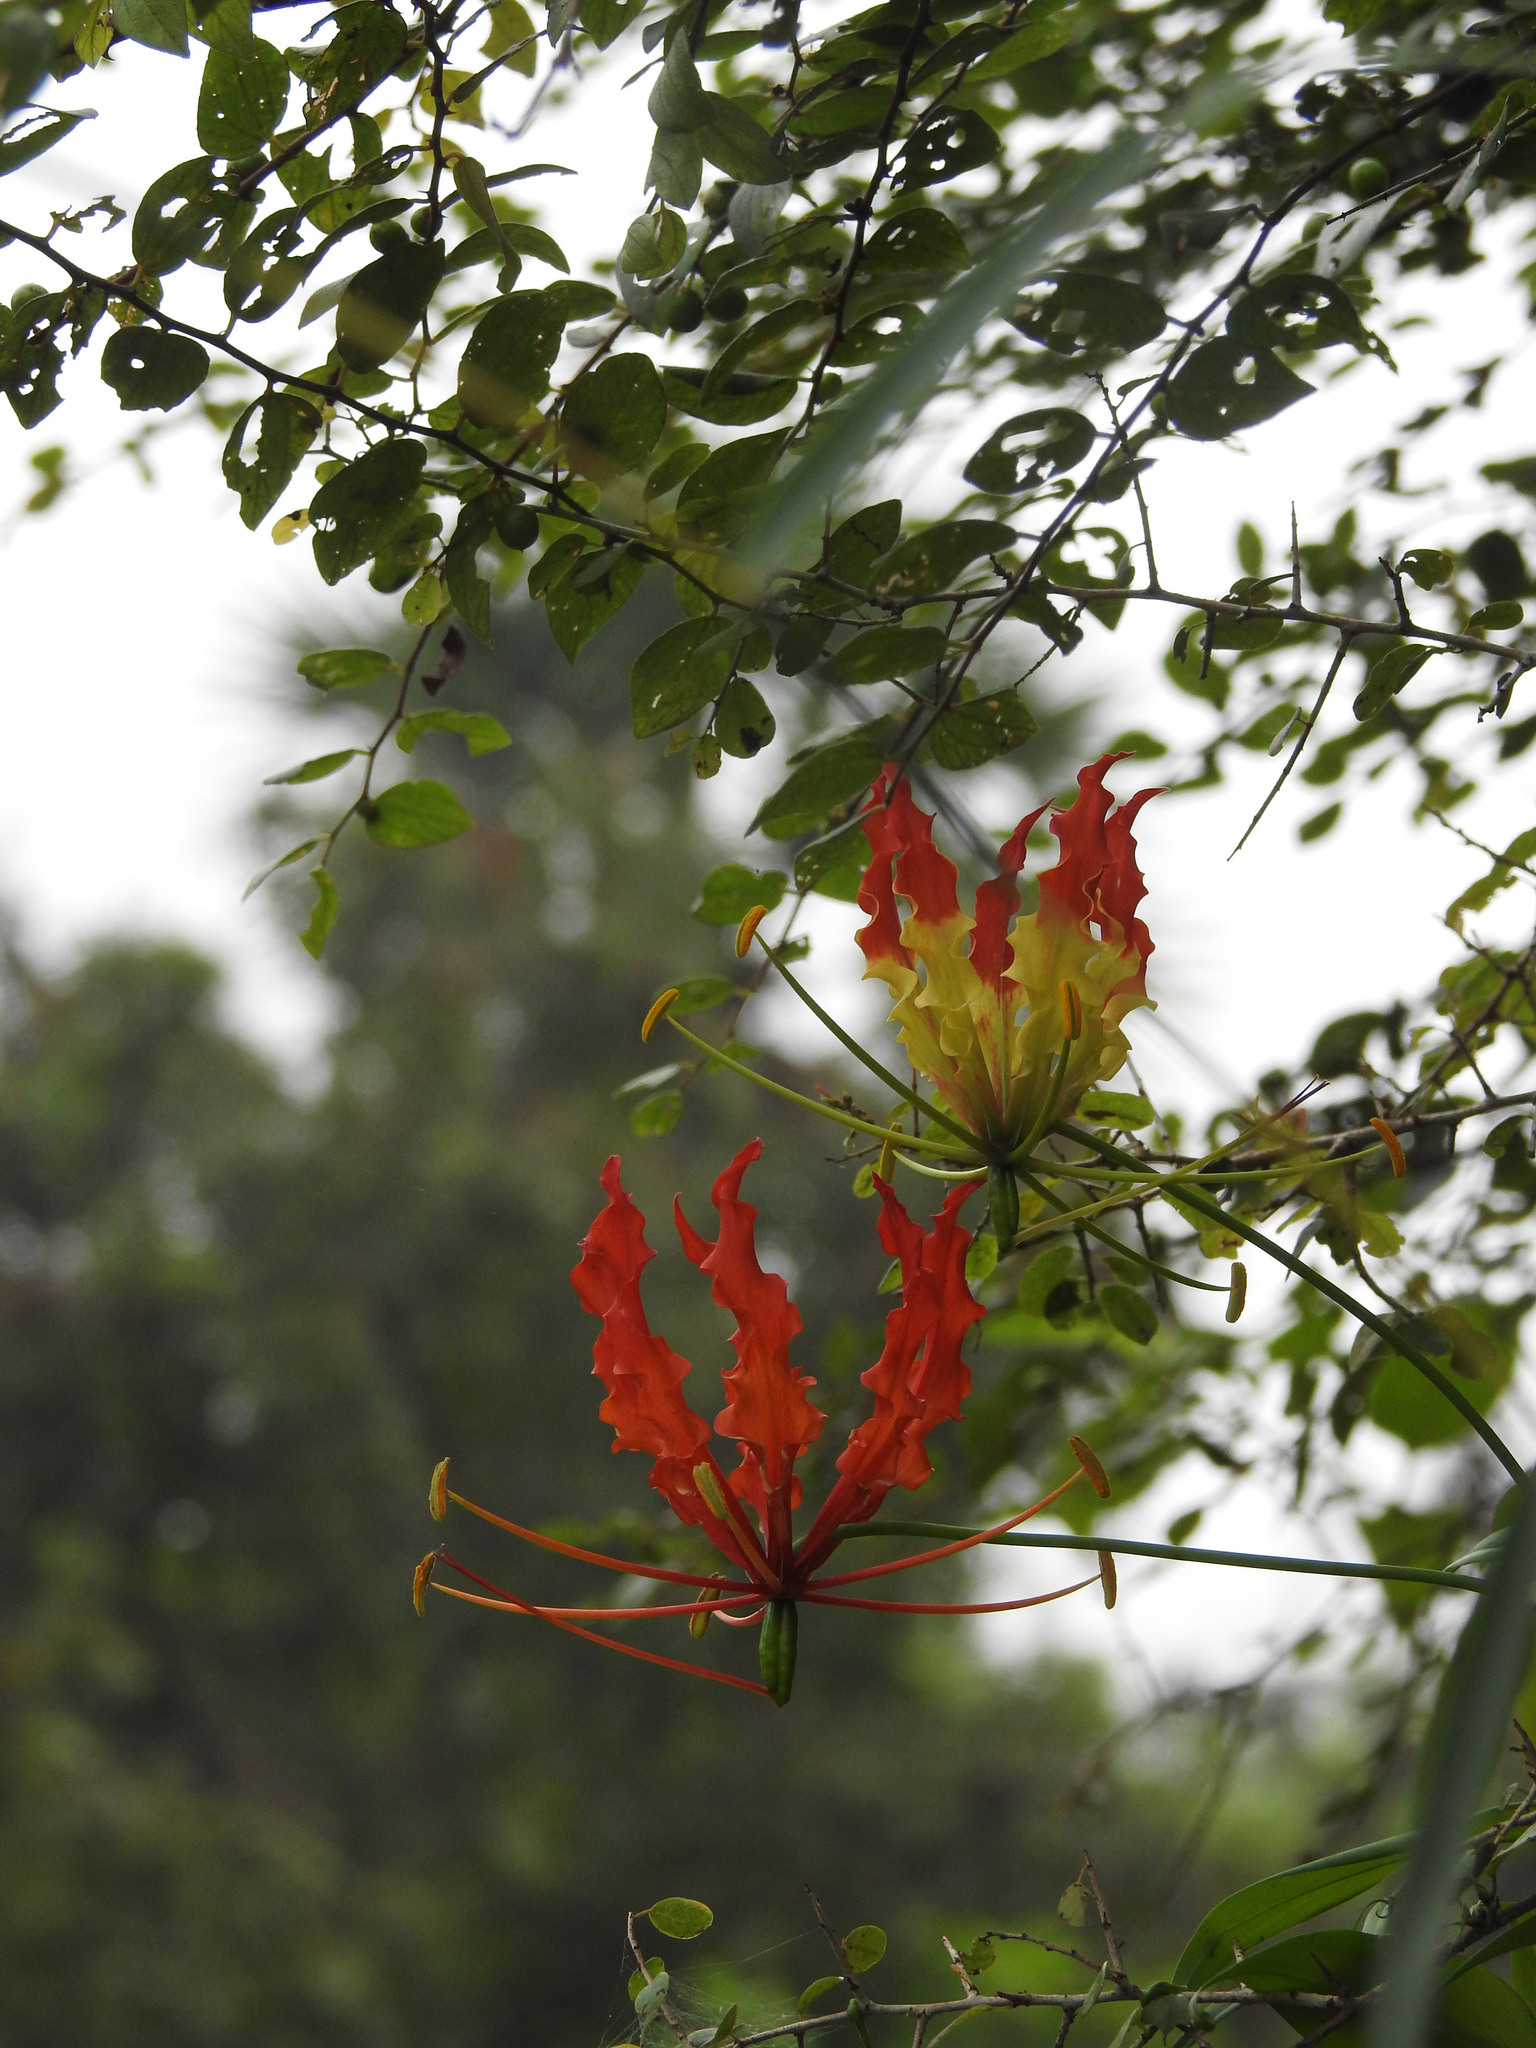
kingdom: Plantae
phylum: Tracheophyta
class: Liliopsida
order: Liliales
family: Colchicaceae
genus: Gloriosa
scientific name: Gloriosa superba
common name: Flame lily
